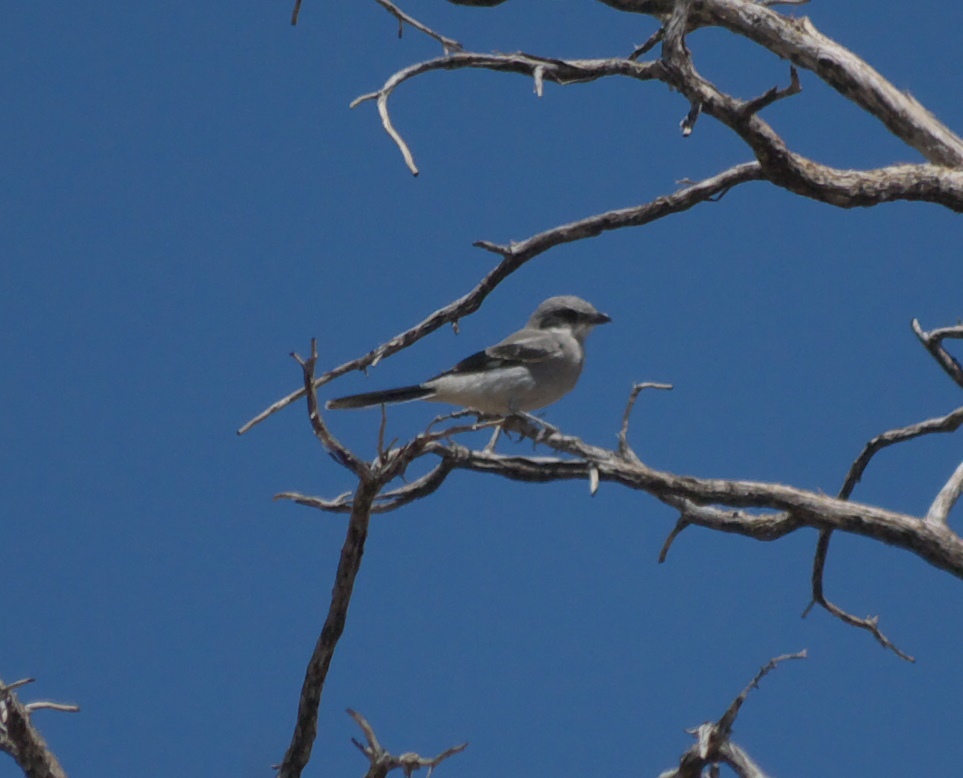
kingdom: Animalia
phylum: Chordata
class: Aves
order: Passeriformes
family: Laniidae
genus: Lanius
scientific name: Lanius ludovicianus
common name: Loggerhead shrike
